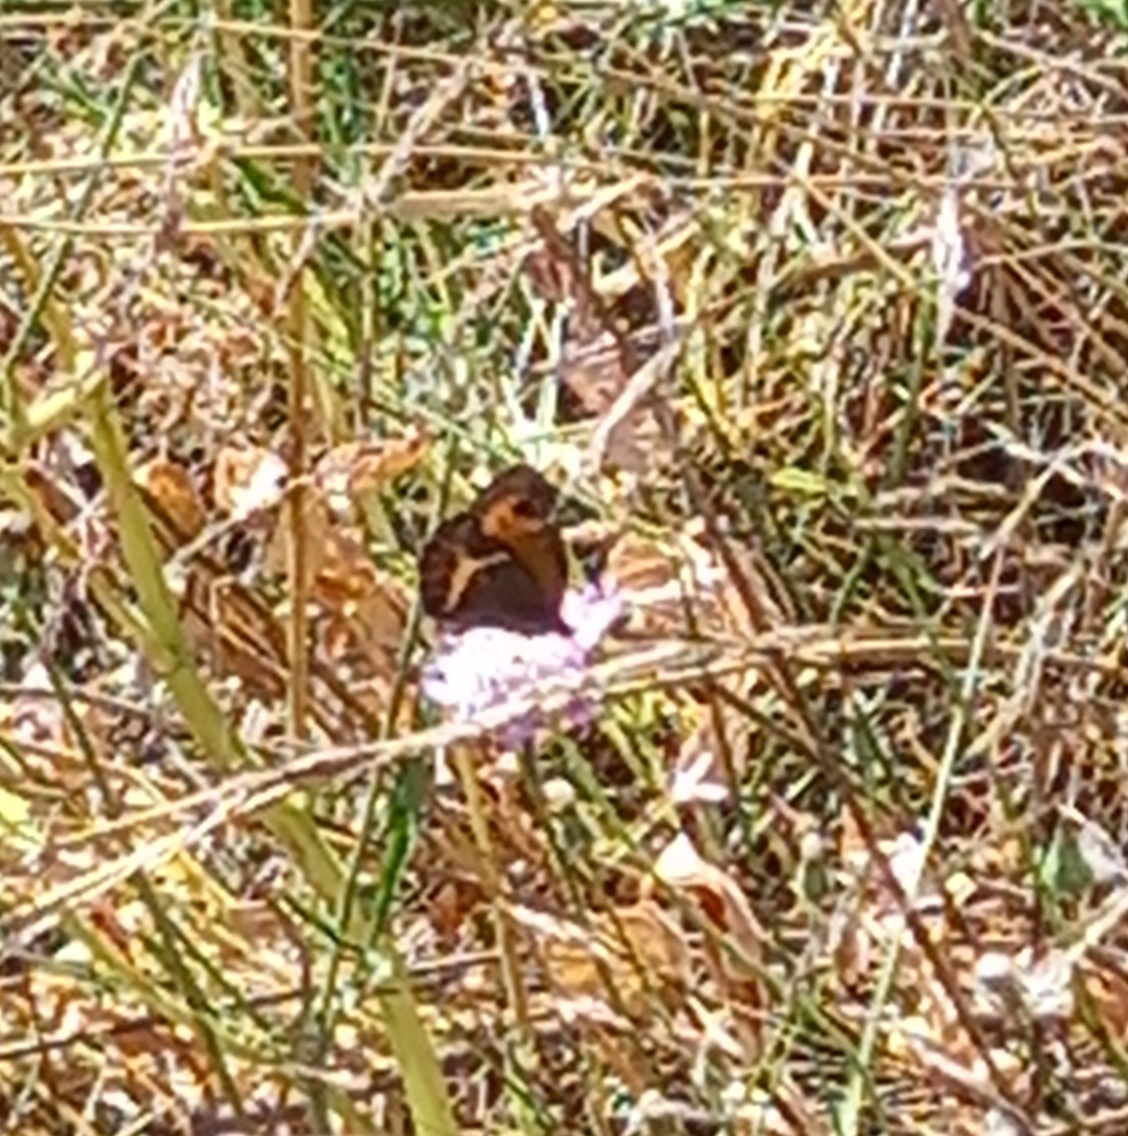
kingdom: Animalia
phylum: Arthropoda
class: Insecta
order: Lepidoptera
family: Nymphalidae
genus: Pyronia
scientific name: Pyronia bathseba
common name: Spanish gatekeeper
